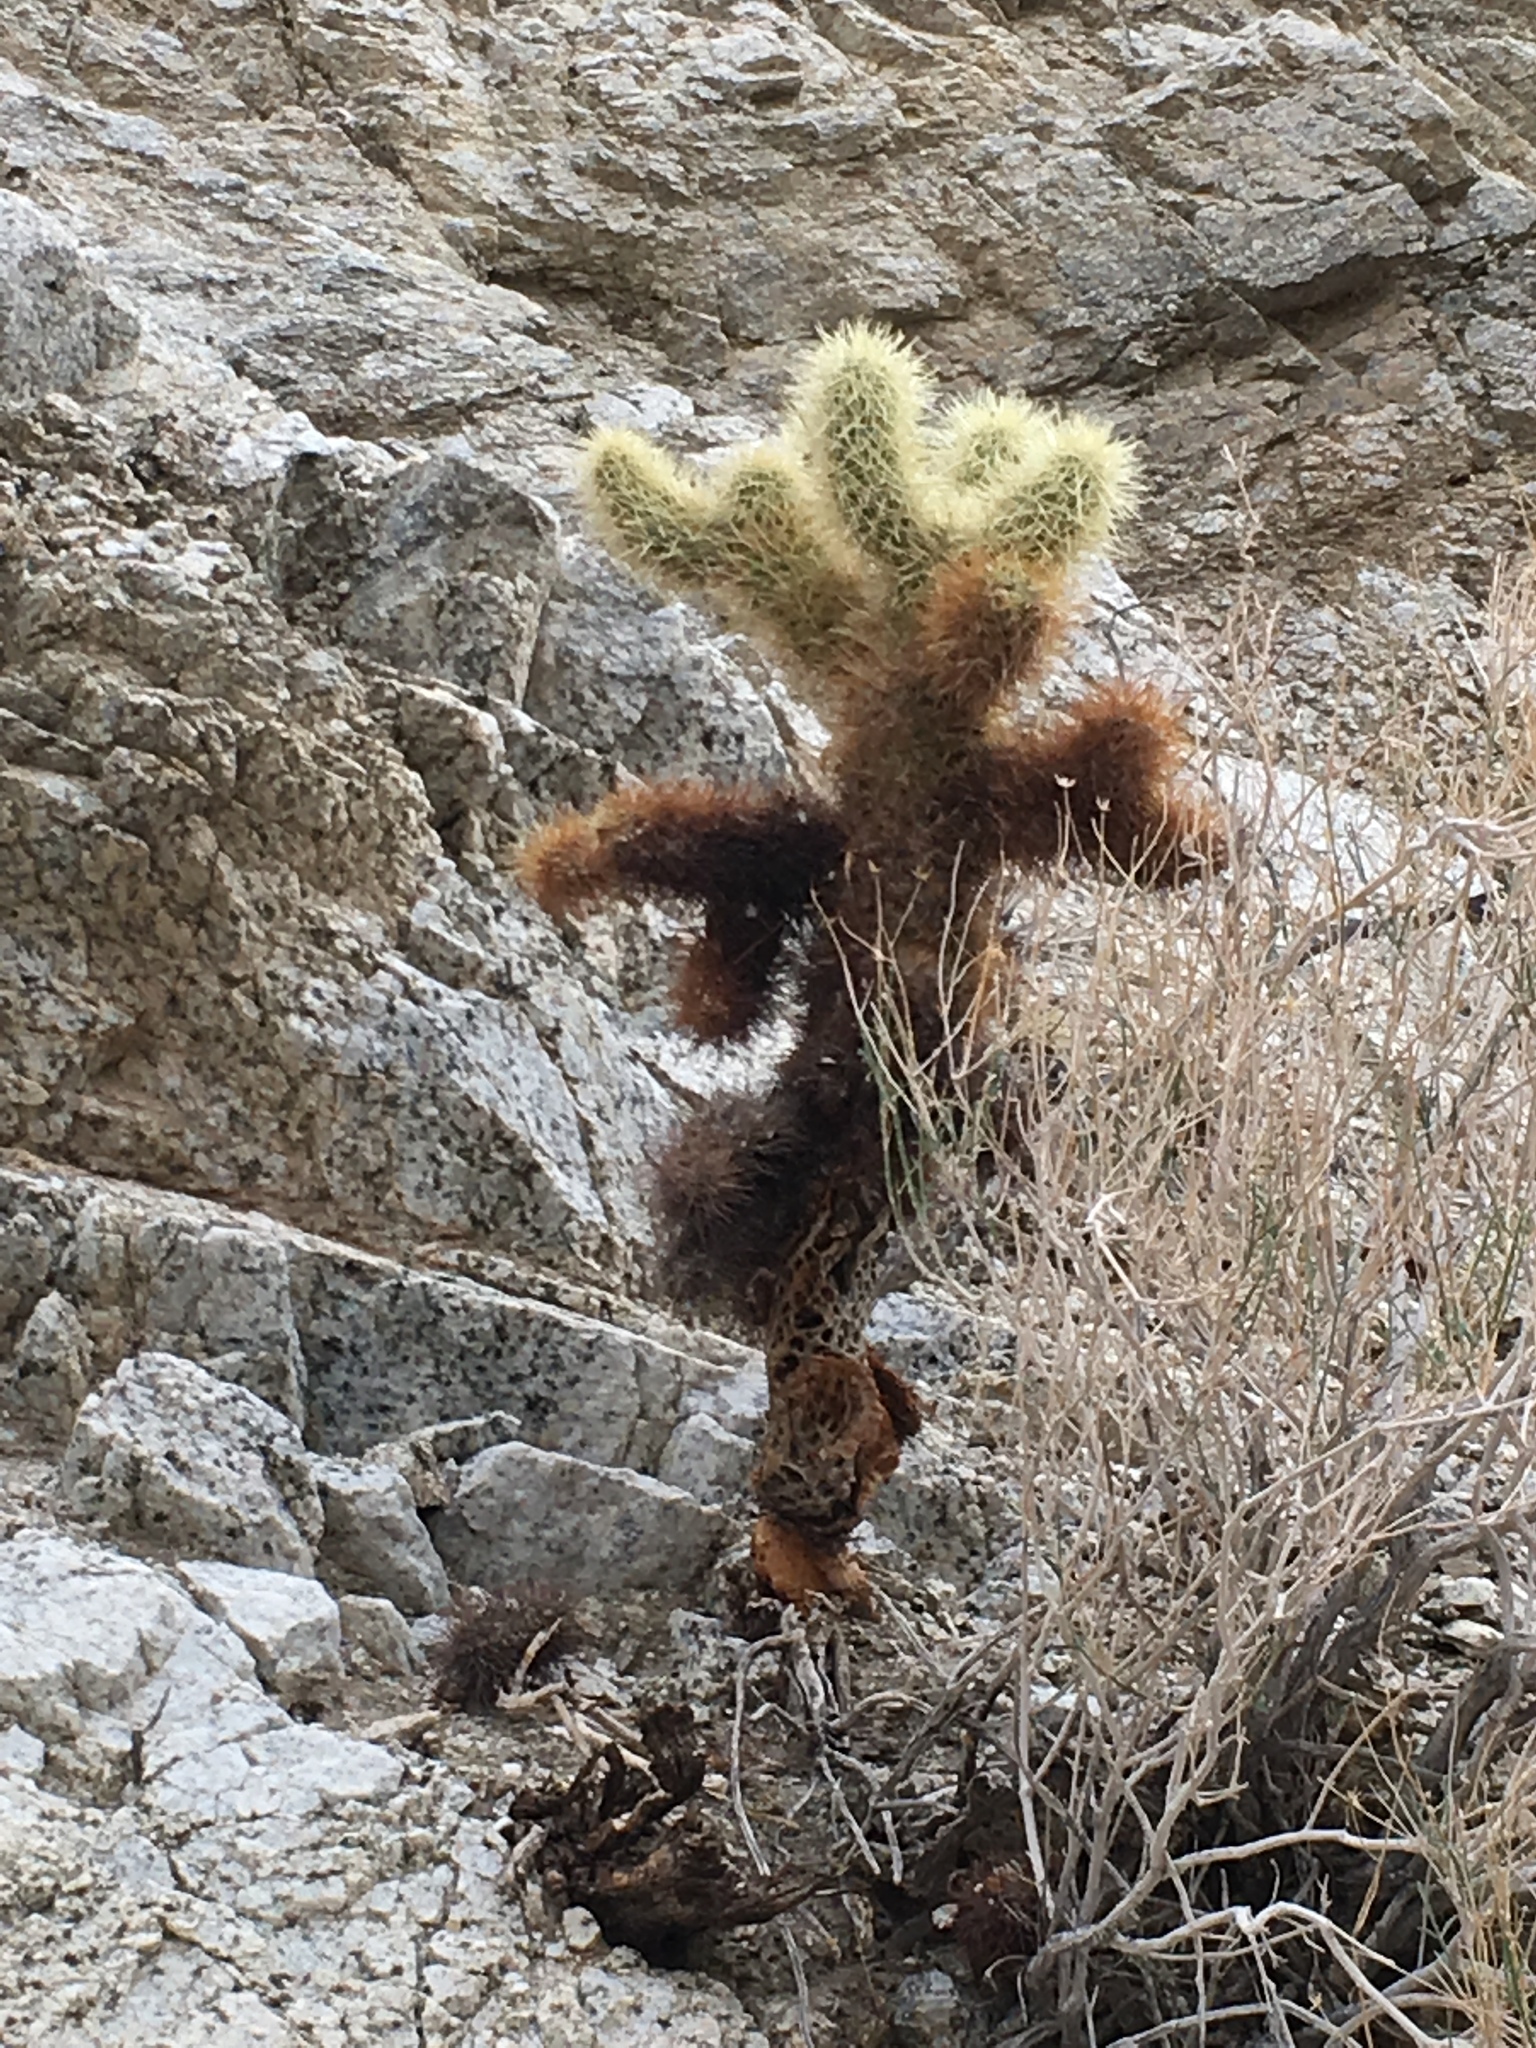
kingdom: Plantae
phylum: Tracheophyta
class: Magnoliopsida
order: Caryophyllales
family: Cactaceae
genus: Cylindropuntia
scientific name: Cylindropuntia fosbergii
